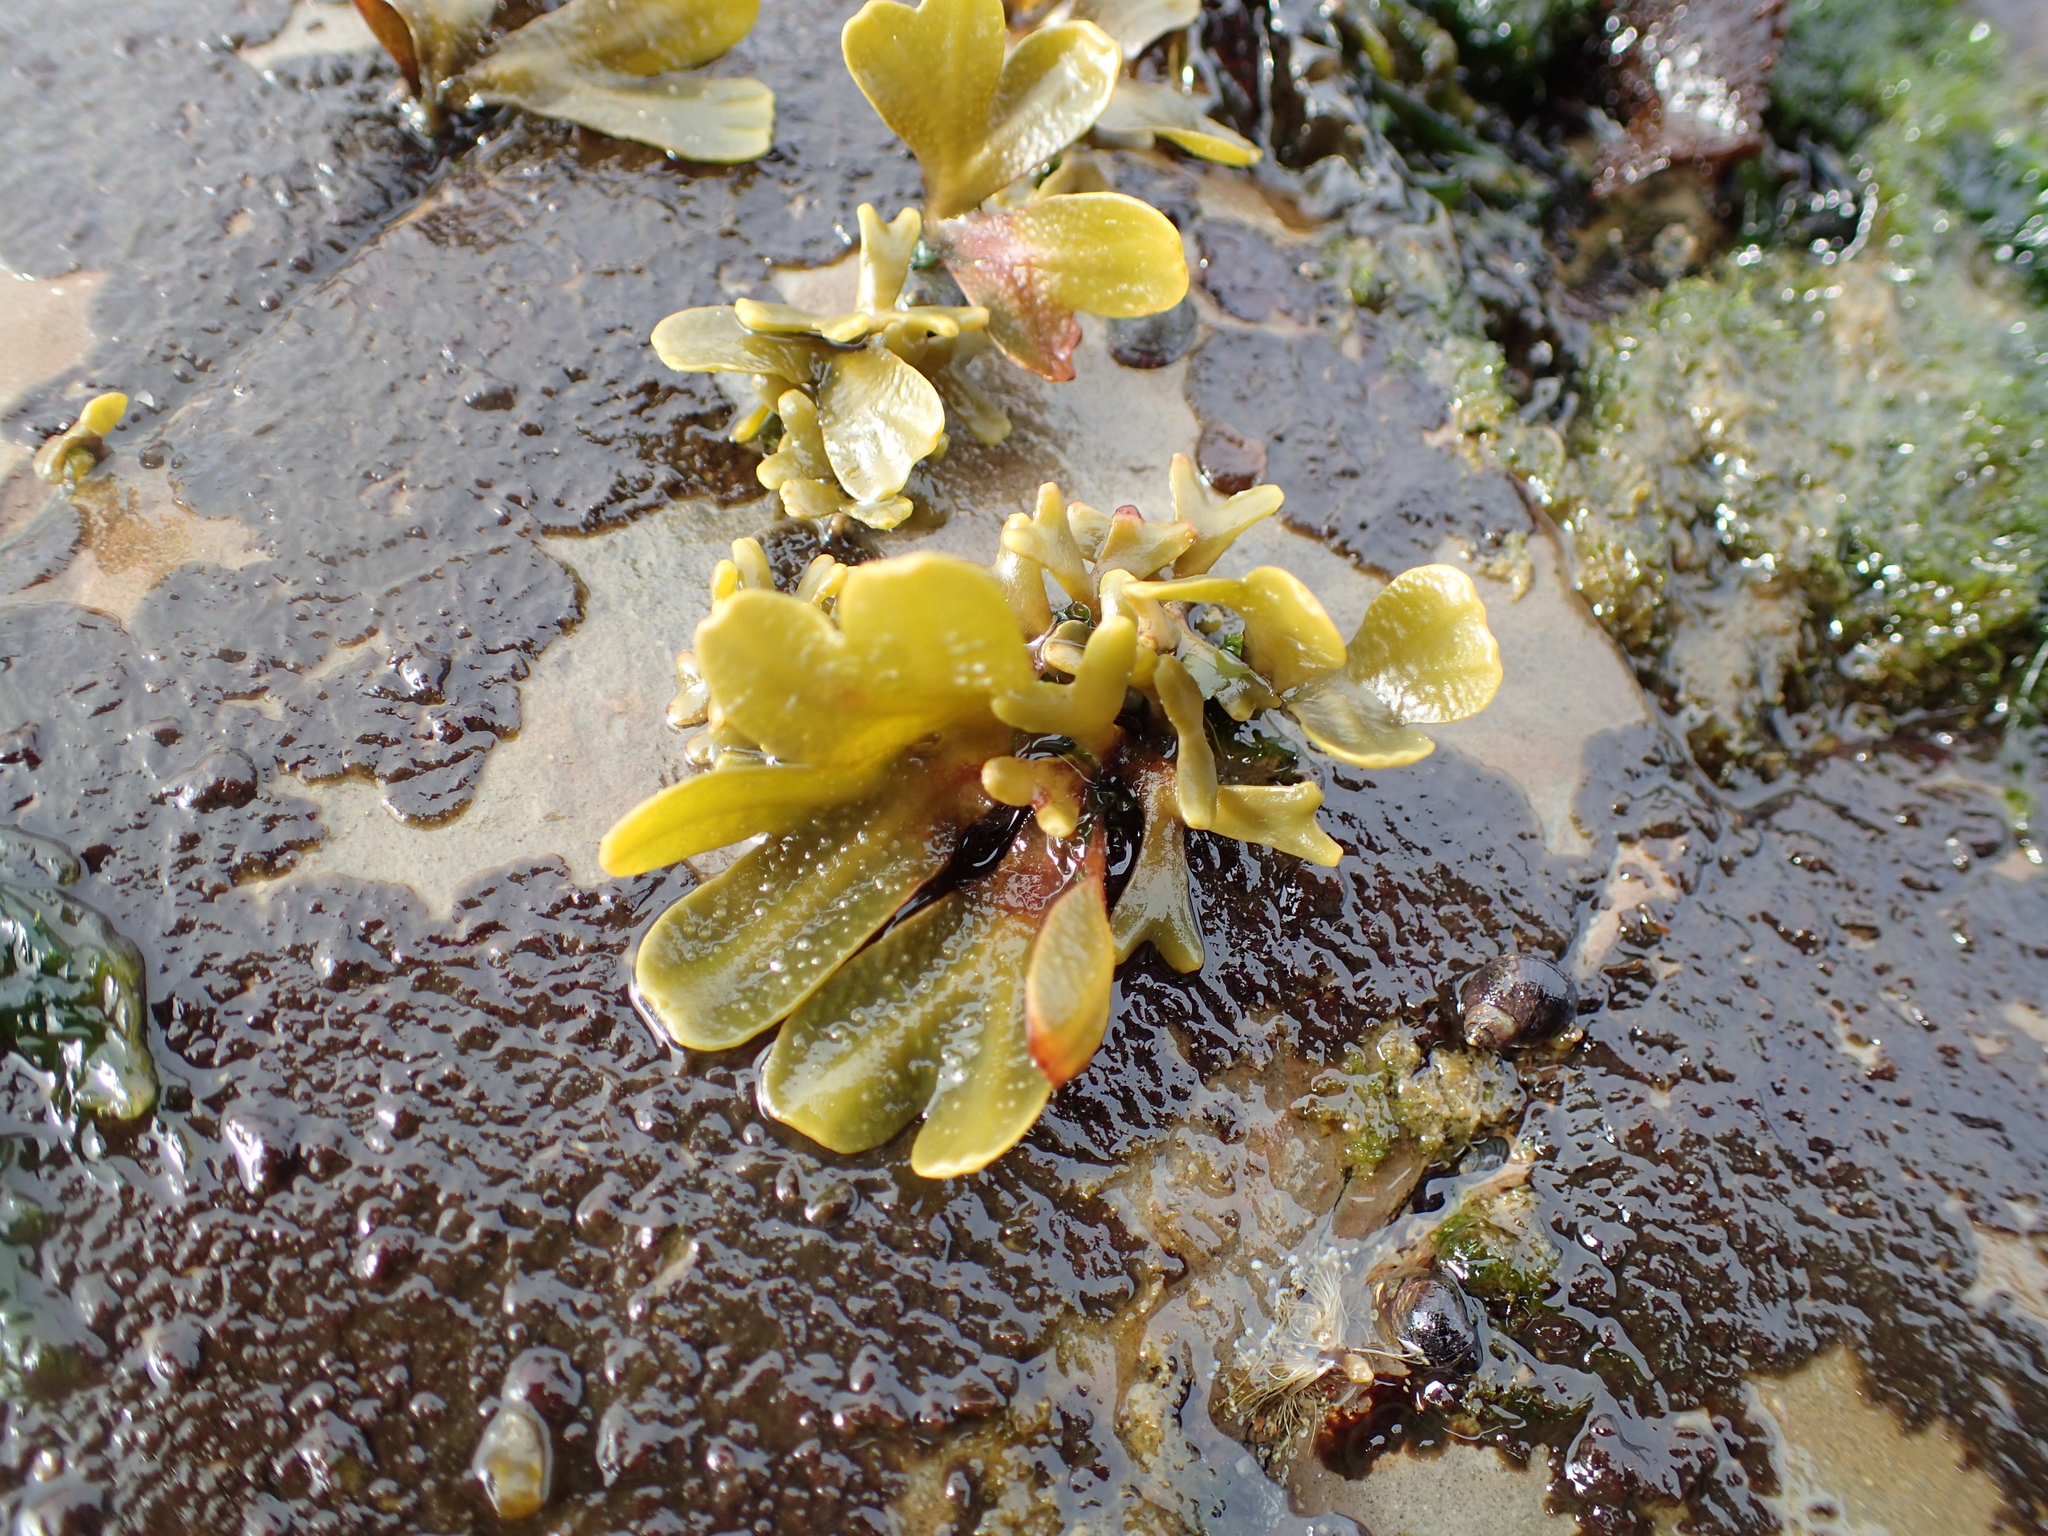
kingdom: Chromista
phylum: Ochrophyta
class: Phaeophyceae
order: Fucales
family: Fucaceae
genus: Fucus
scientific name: Fucus distichus
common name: Rockweed
